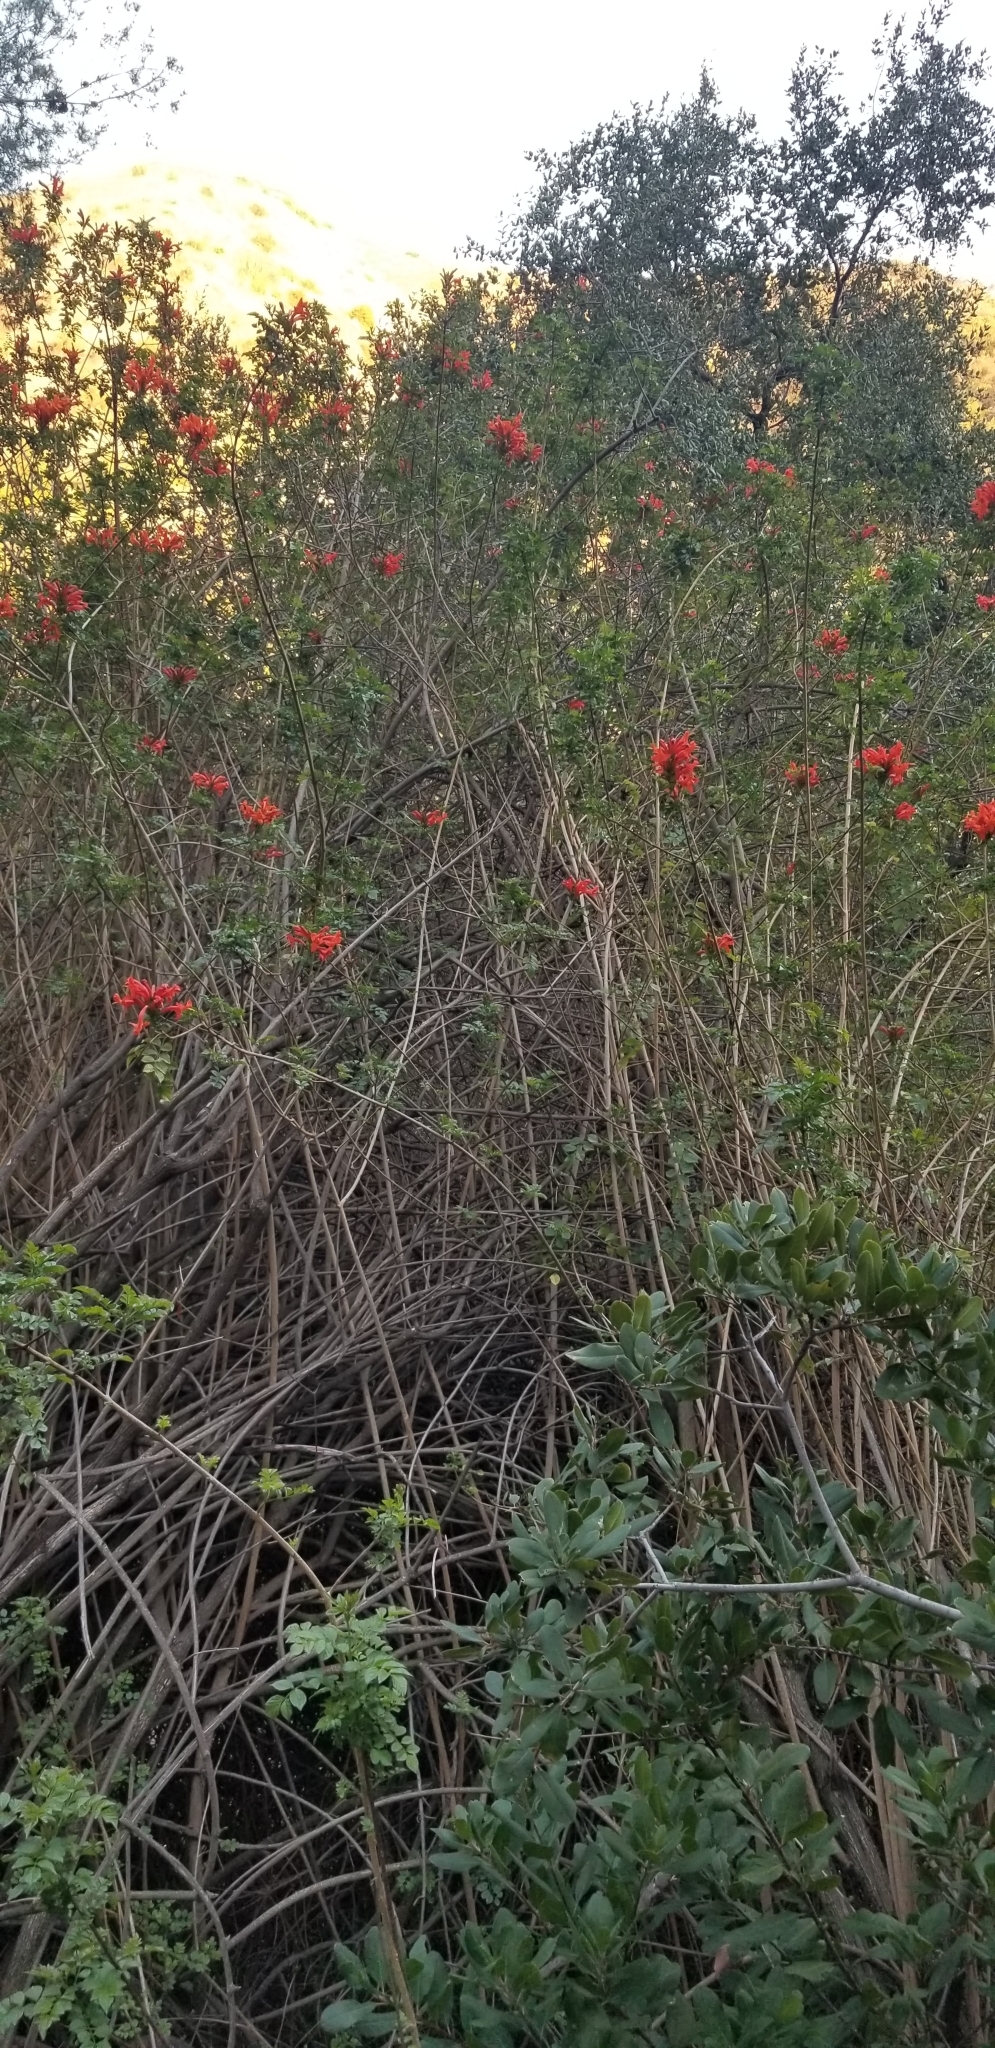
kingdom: Plantae
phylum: Tracheophyta
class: Magnoliopsida
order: Lamiales
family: Bignoniaceae
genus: Tecomaria
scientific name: Tecomaria capensis
